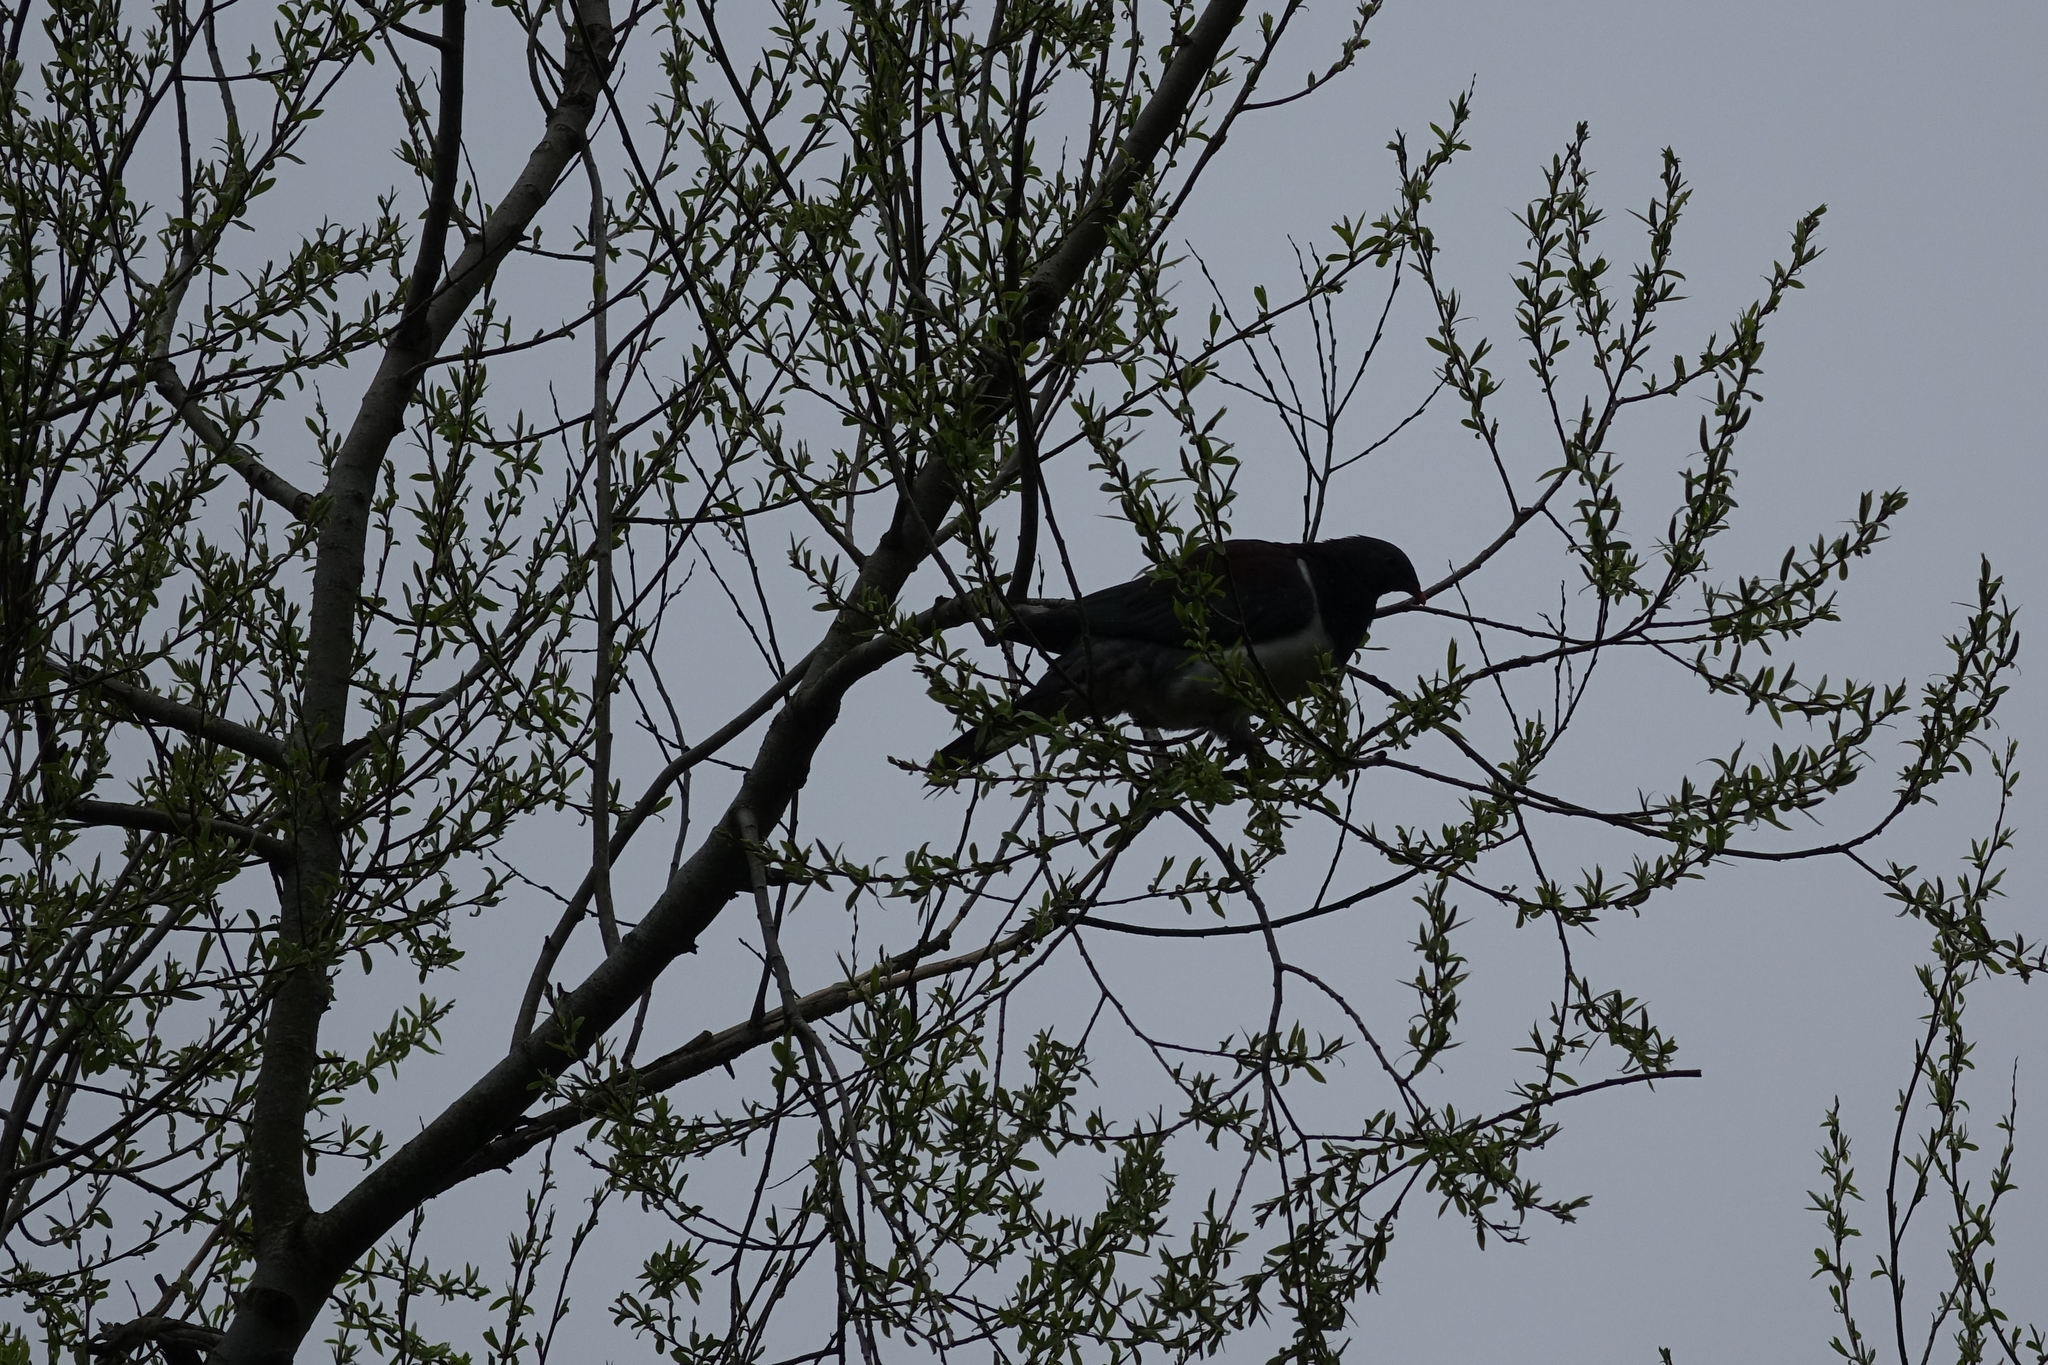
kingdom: Animalia
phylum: Chordata
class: Aves
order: Columbiformes
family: Columbidae
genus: Hemiphaga
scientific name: Hemiphaga novaeseelandiae
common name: New zealand pigeon
